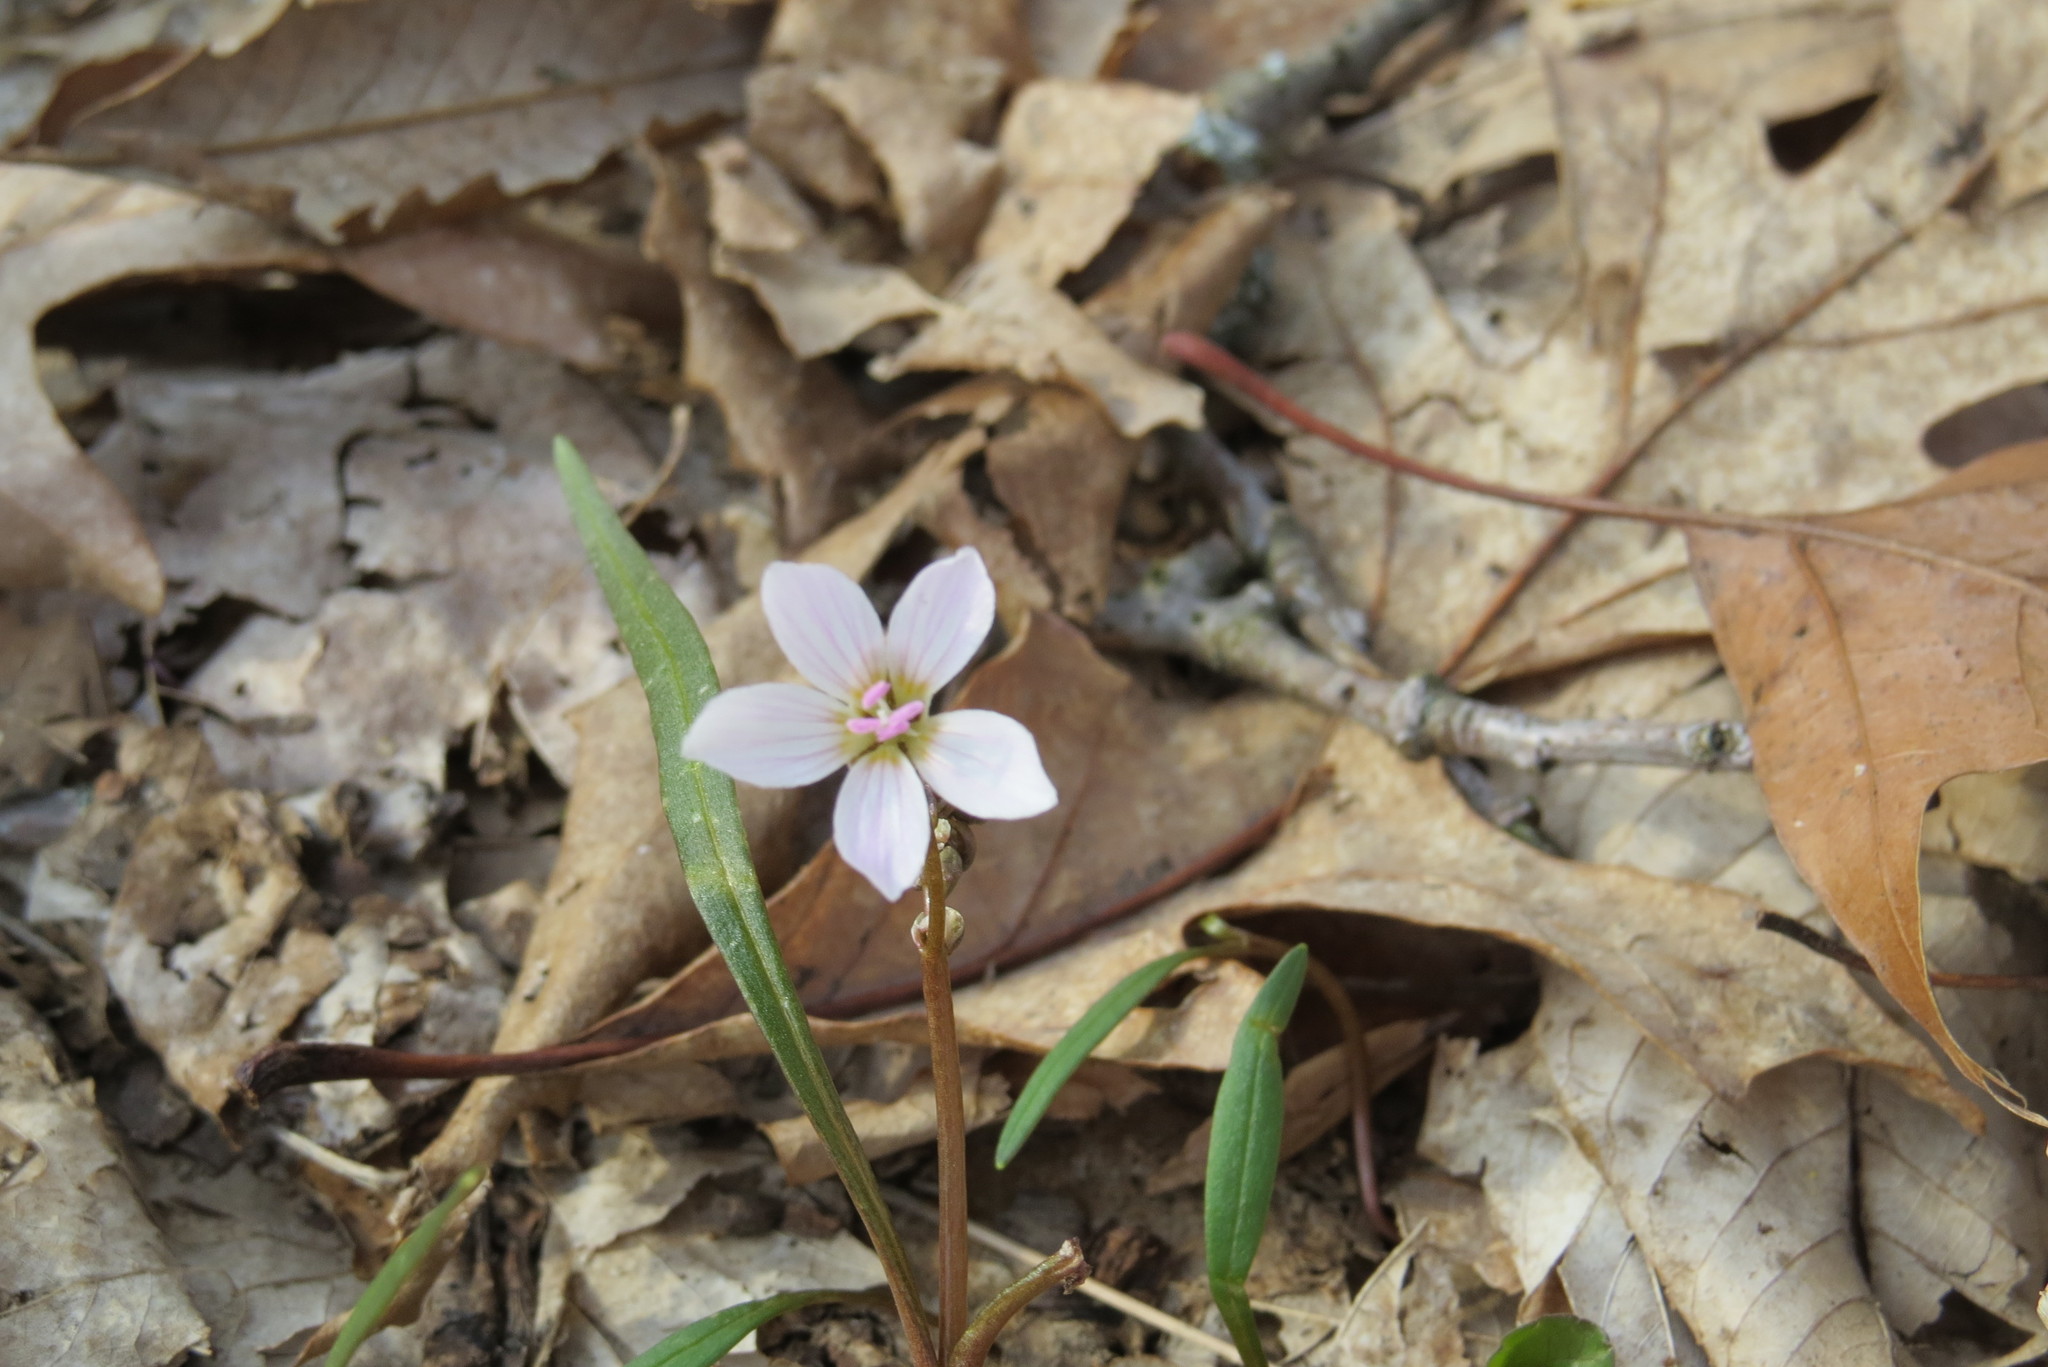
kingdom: Plantae
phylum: Tracheophyta
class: Magnoliopsida
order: Caryophyllales
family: Montiaceae
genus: Claytonia
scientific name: Claytonia virginica
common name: Virginia springbeauty
